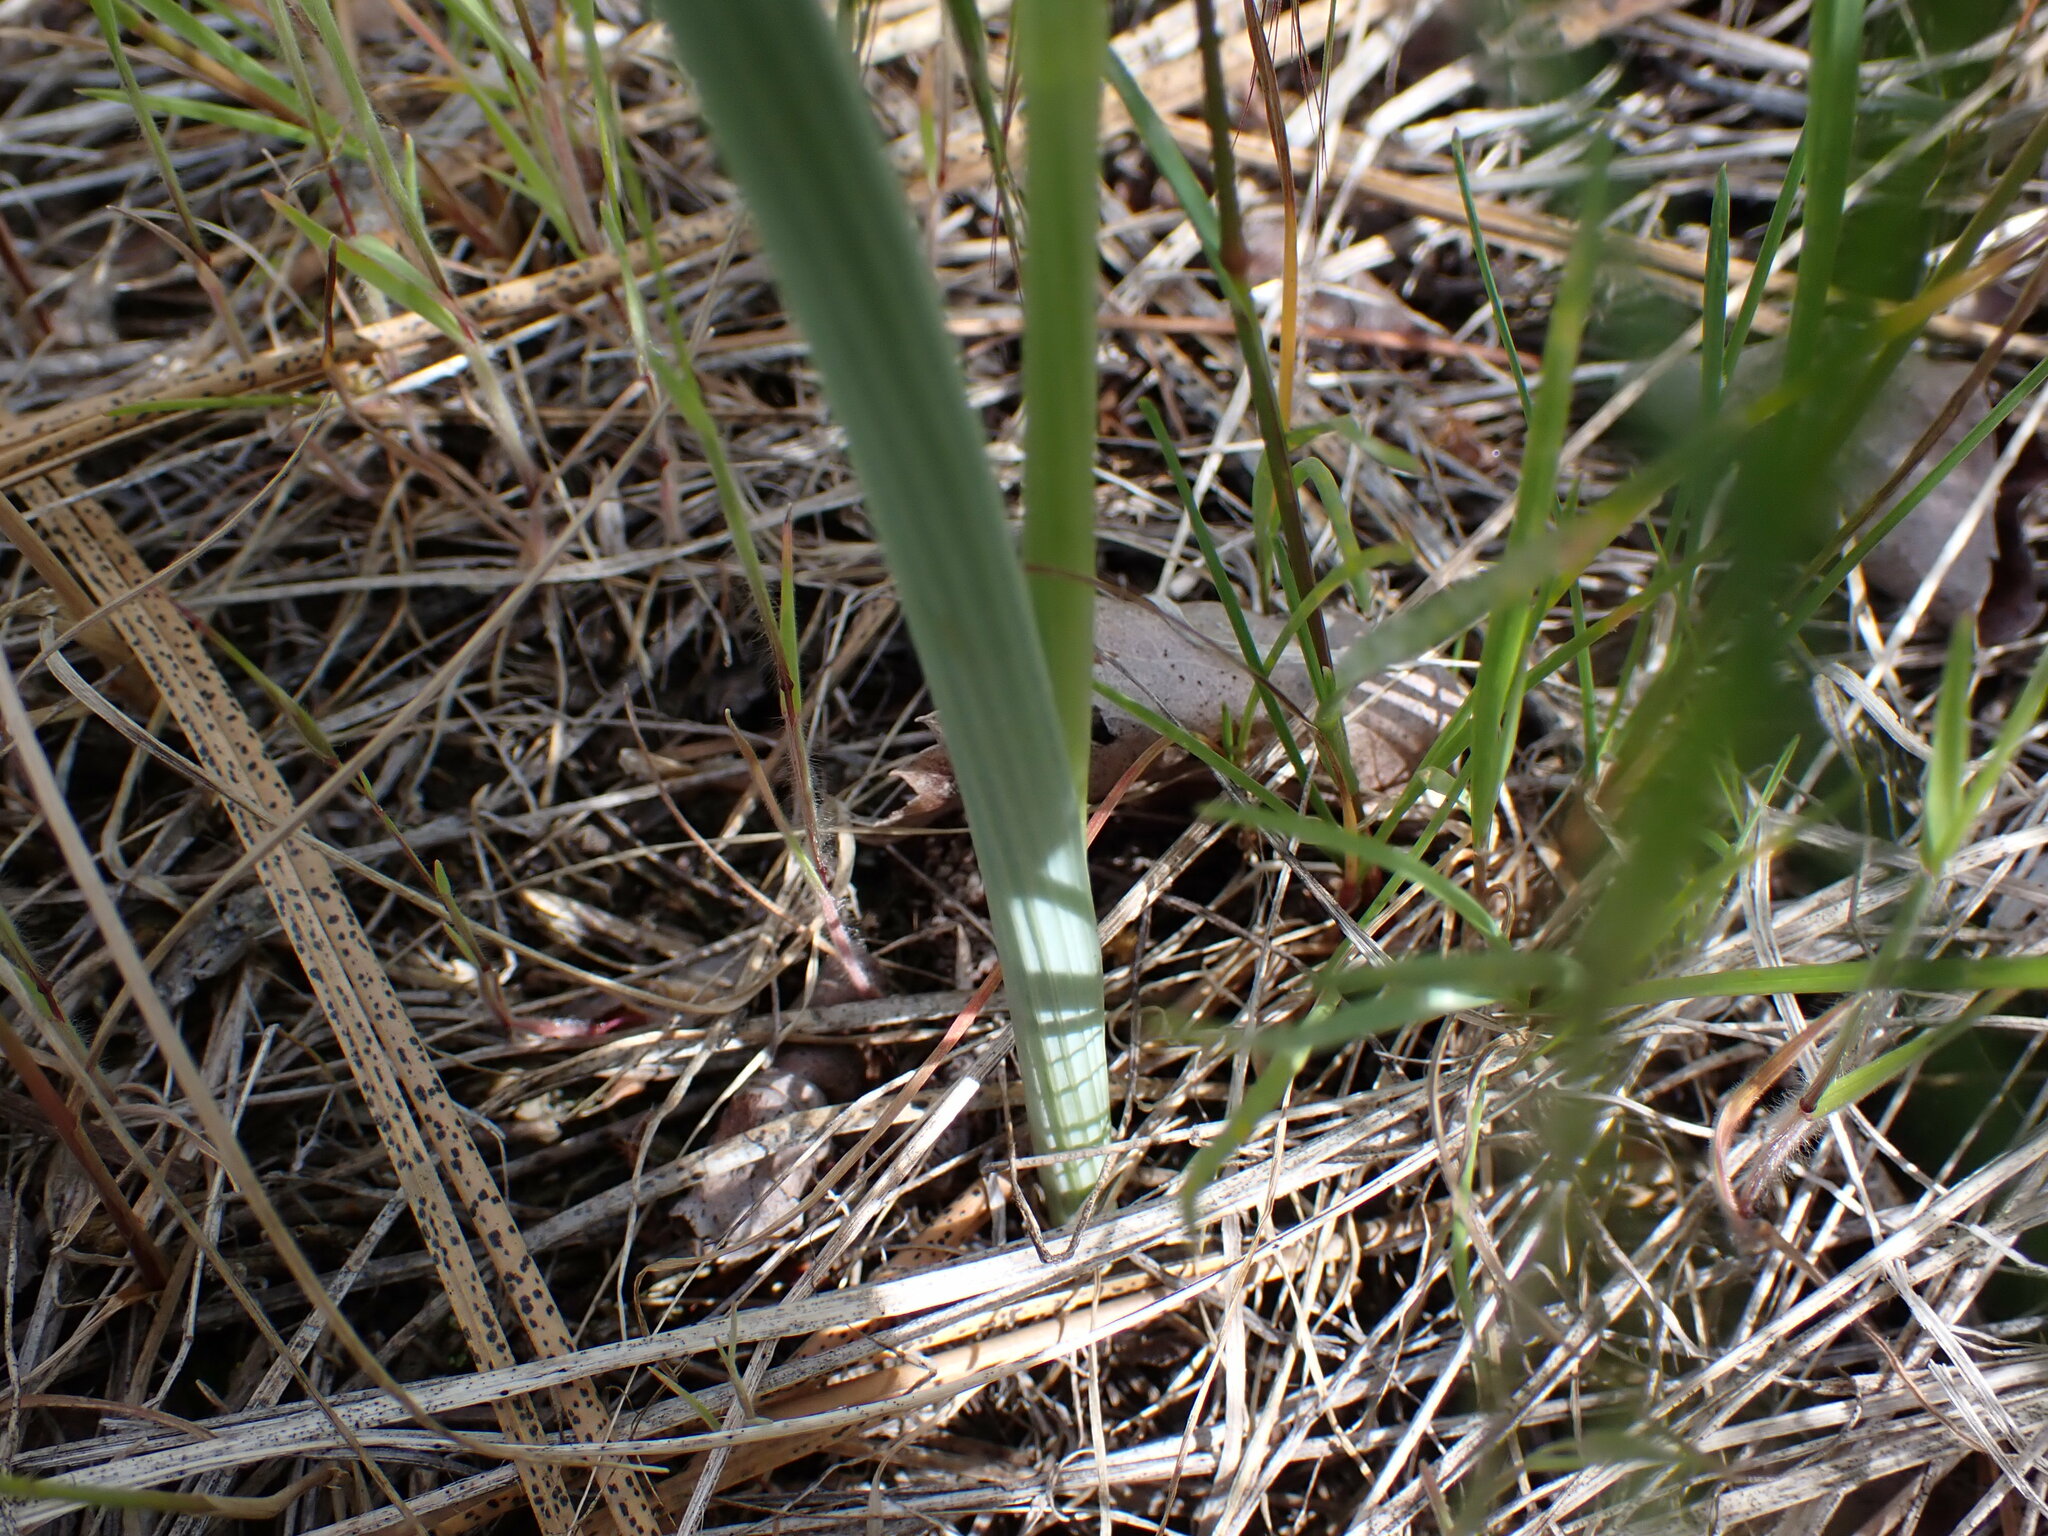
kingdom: Plantae
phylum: Tracheophyta
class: Liliopsida
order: Liliales
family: Liliaceae
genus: Calochortus
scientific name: Calochortus macrocarpus
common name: Green-band mariposa lily
